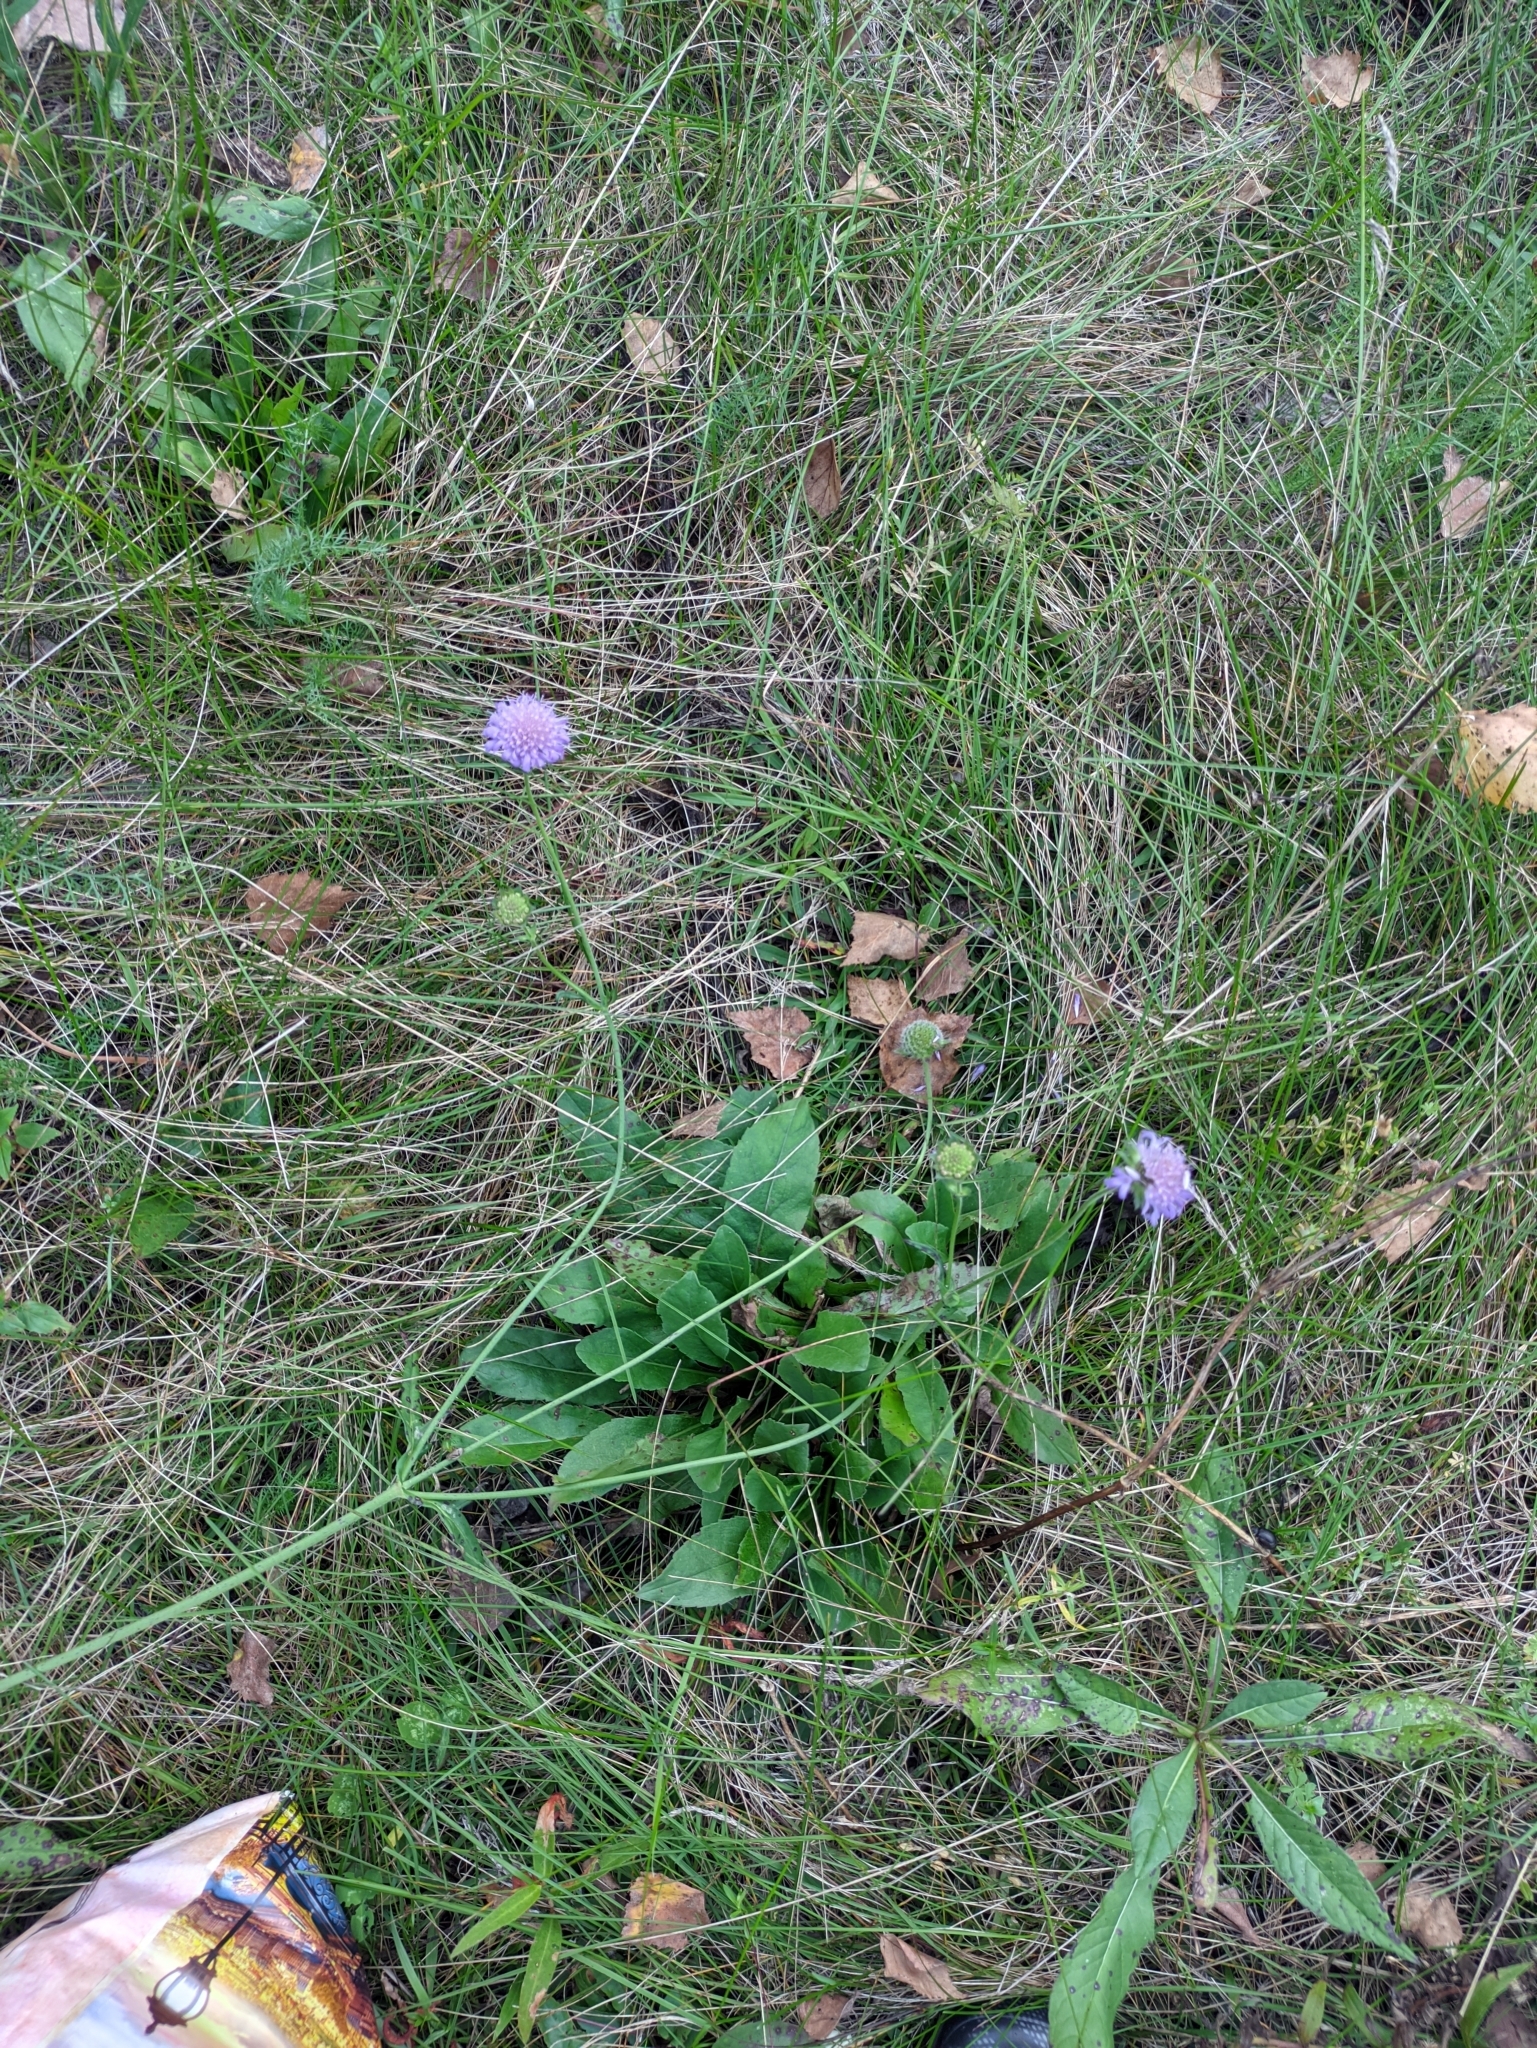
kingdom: Plantae
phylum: Tracheophyta
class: Magnoliopsida
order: Dipsacales
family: Caprifoliaceae
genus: Knautia
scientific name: Knautia arvensis
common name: Field scabiosa
